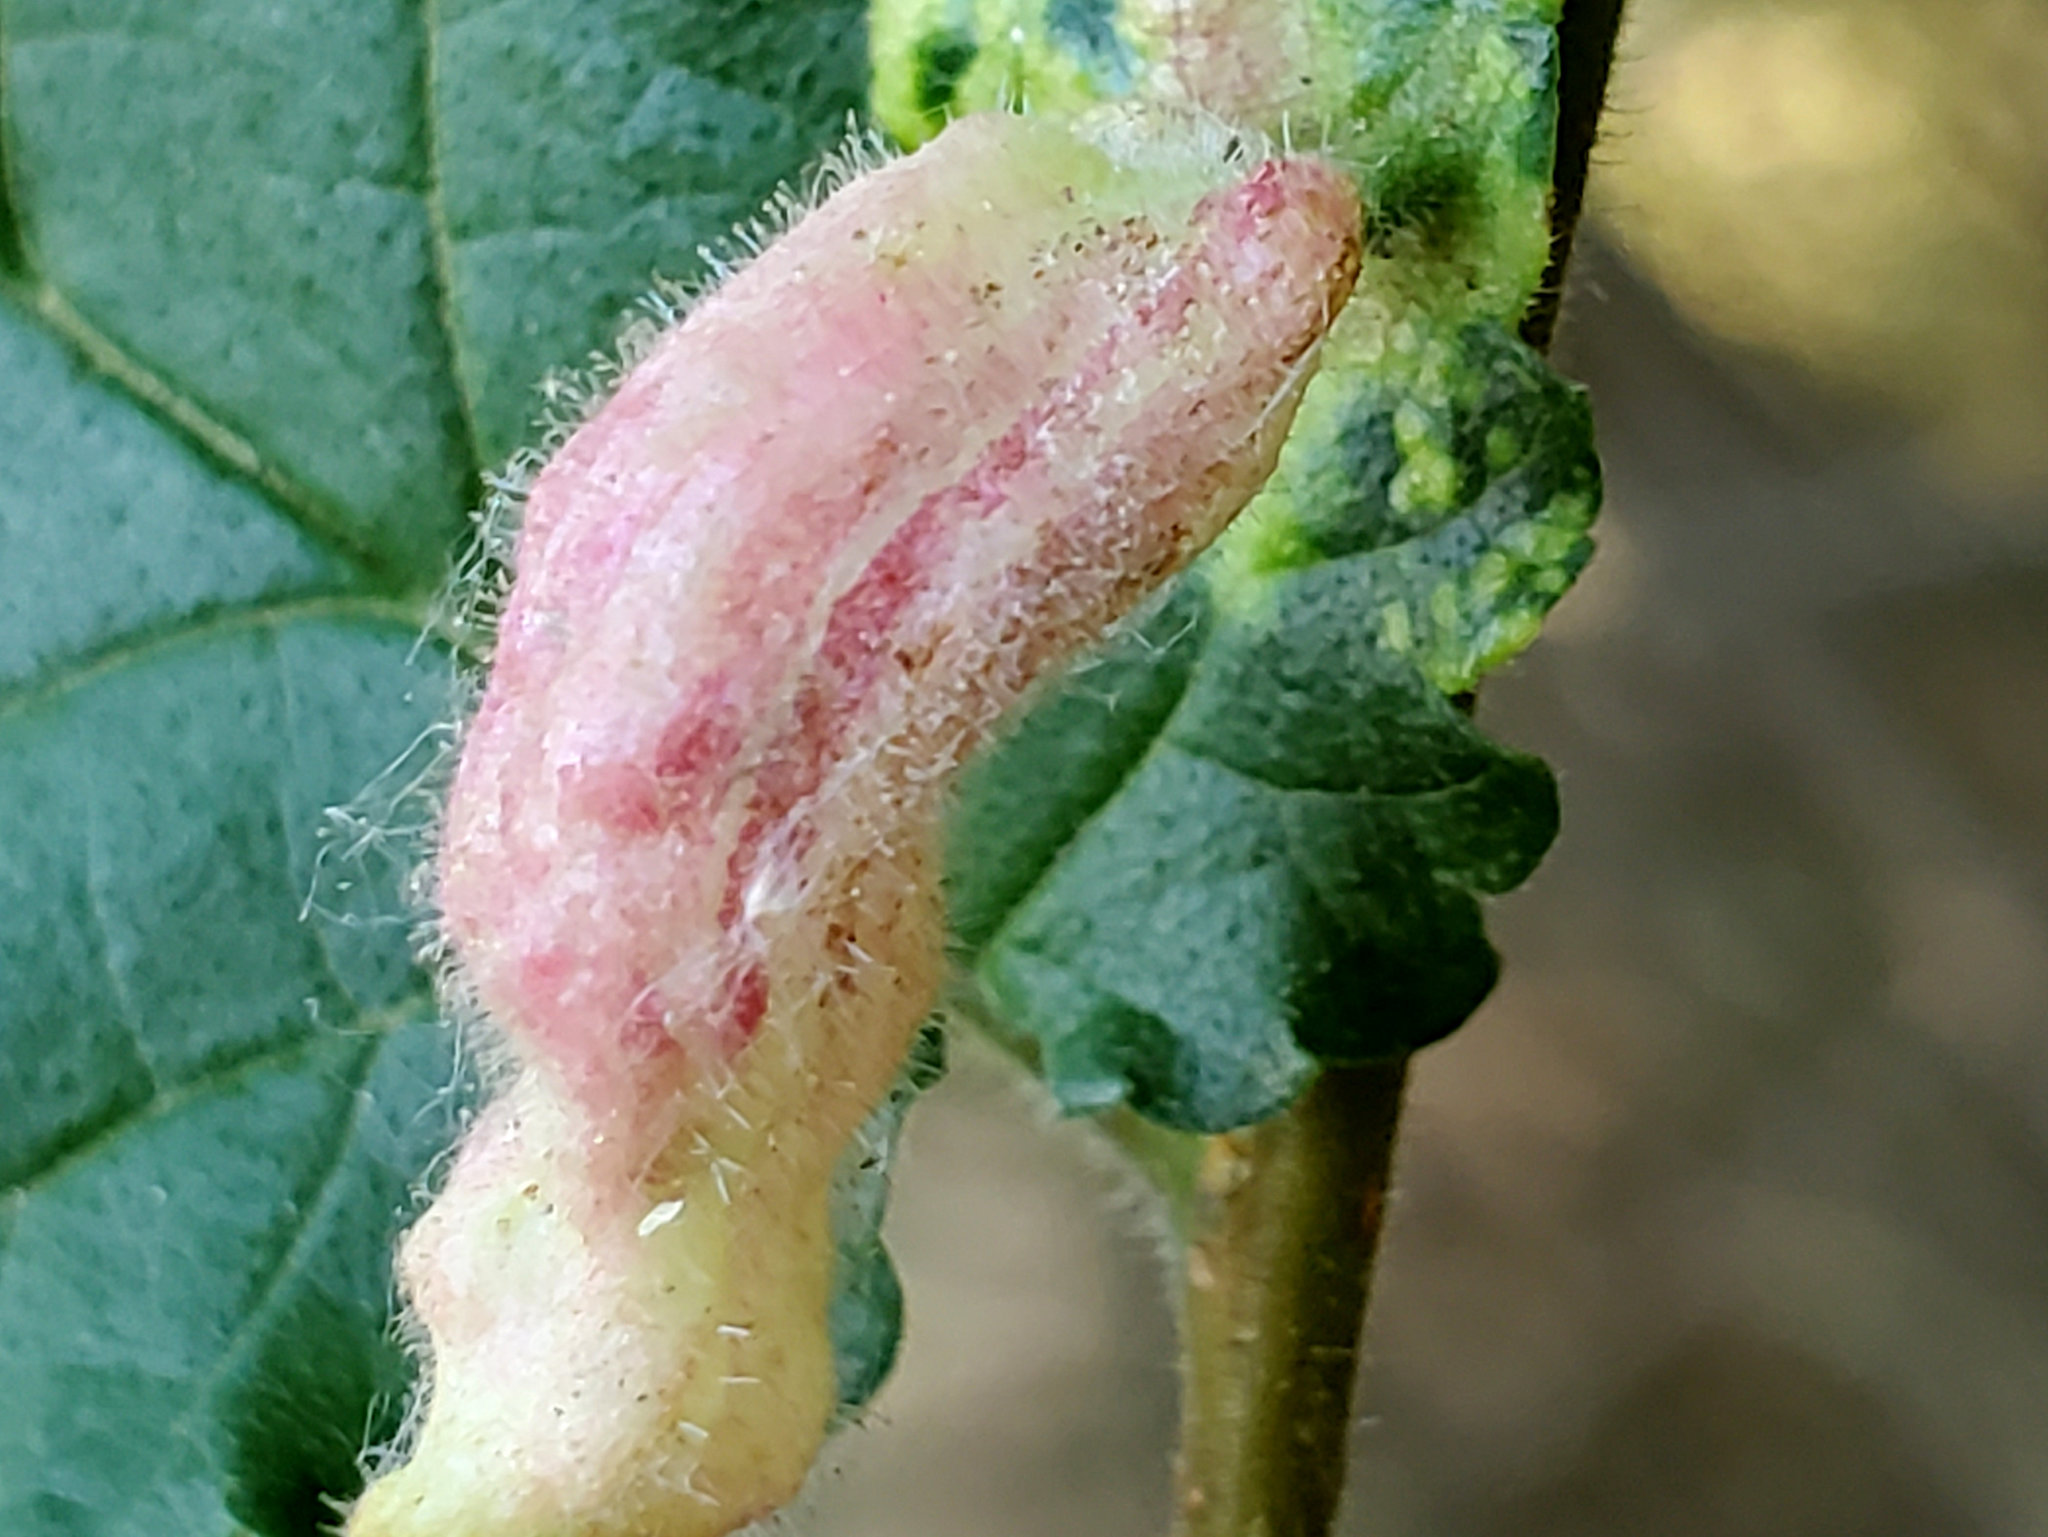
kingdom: Animalia
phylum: Arthropoda
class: Insecta
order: Hemiptera
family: Aphididae
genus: Tetraneura
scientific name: Tetraneura nigriabdominalis
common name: Aphid
